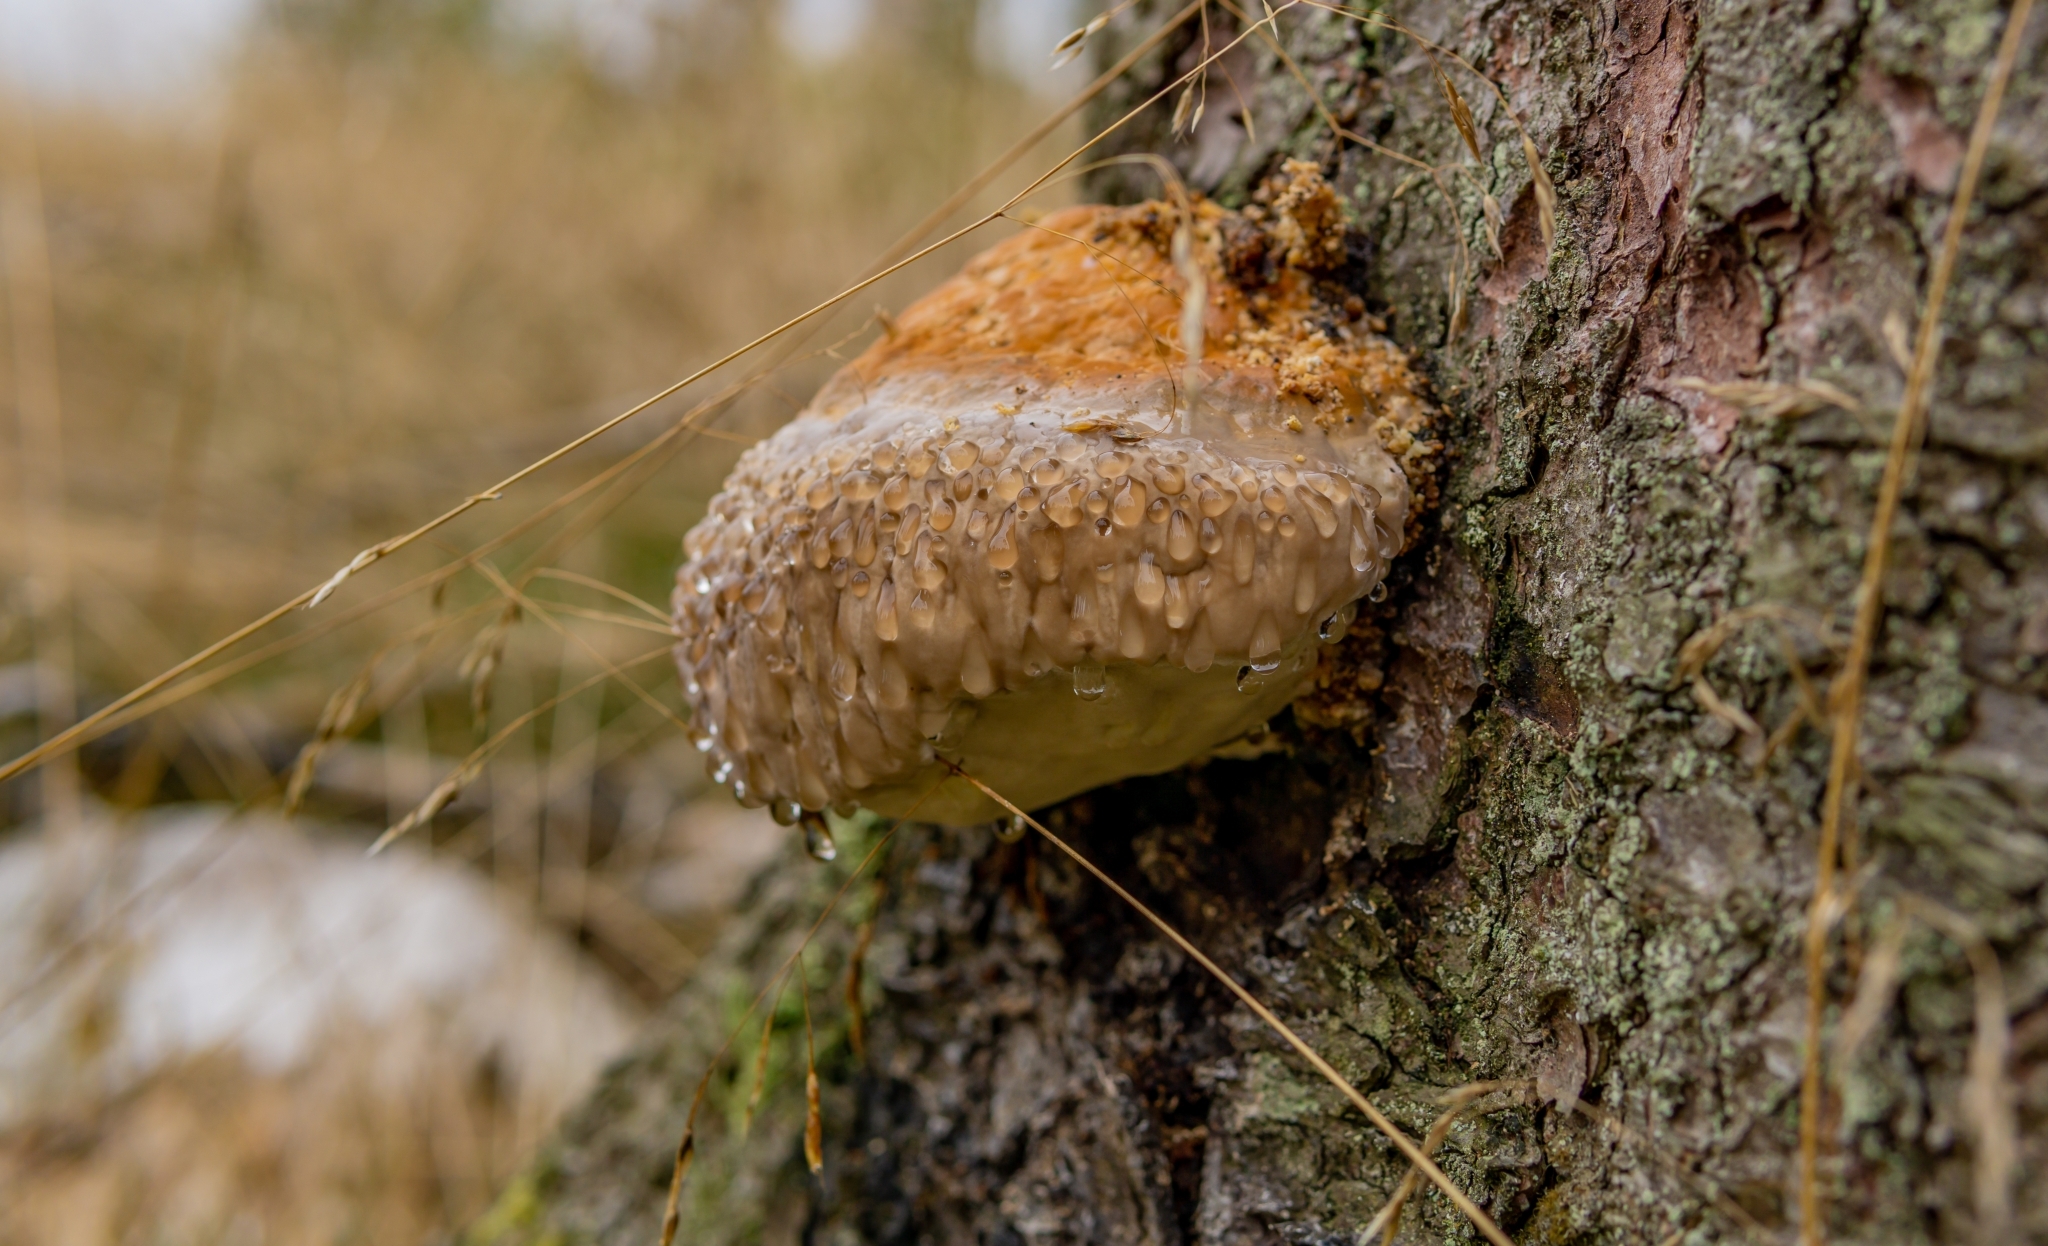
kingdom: Fungi
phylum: Basidiomycota
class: Agaricomycetes
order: Polyporales
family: Fomitopsidaceae
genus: Fomitopsis
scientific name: Fomitopsis pinicola
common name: Red-belted bracket
